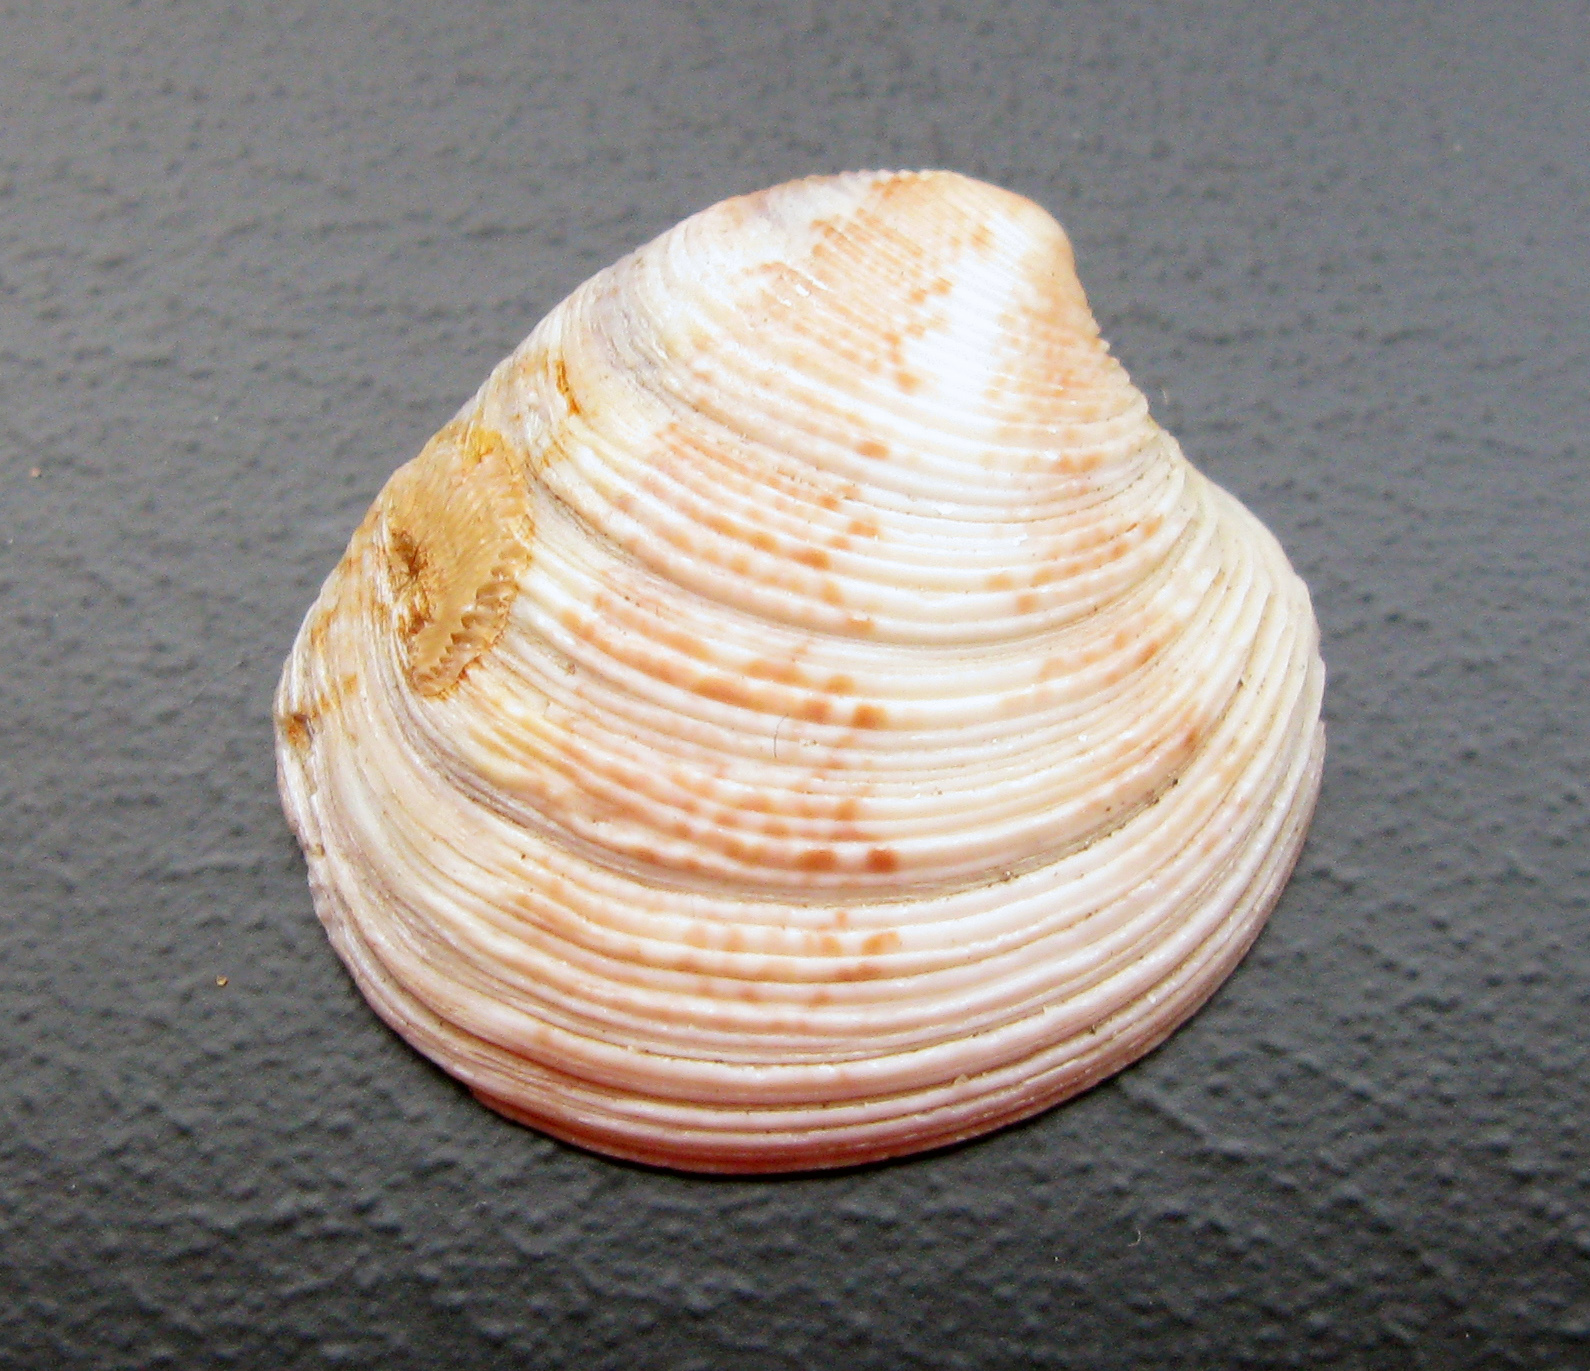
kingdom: Animalia
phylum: Mollusca
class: Bivalvia
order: Venerida
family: Veneridae
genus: Chamelea
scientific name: Chamelea gallina
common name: Chicken venus
